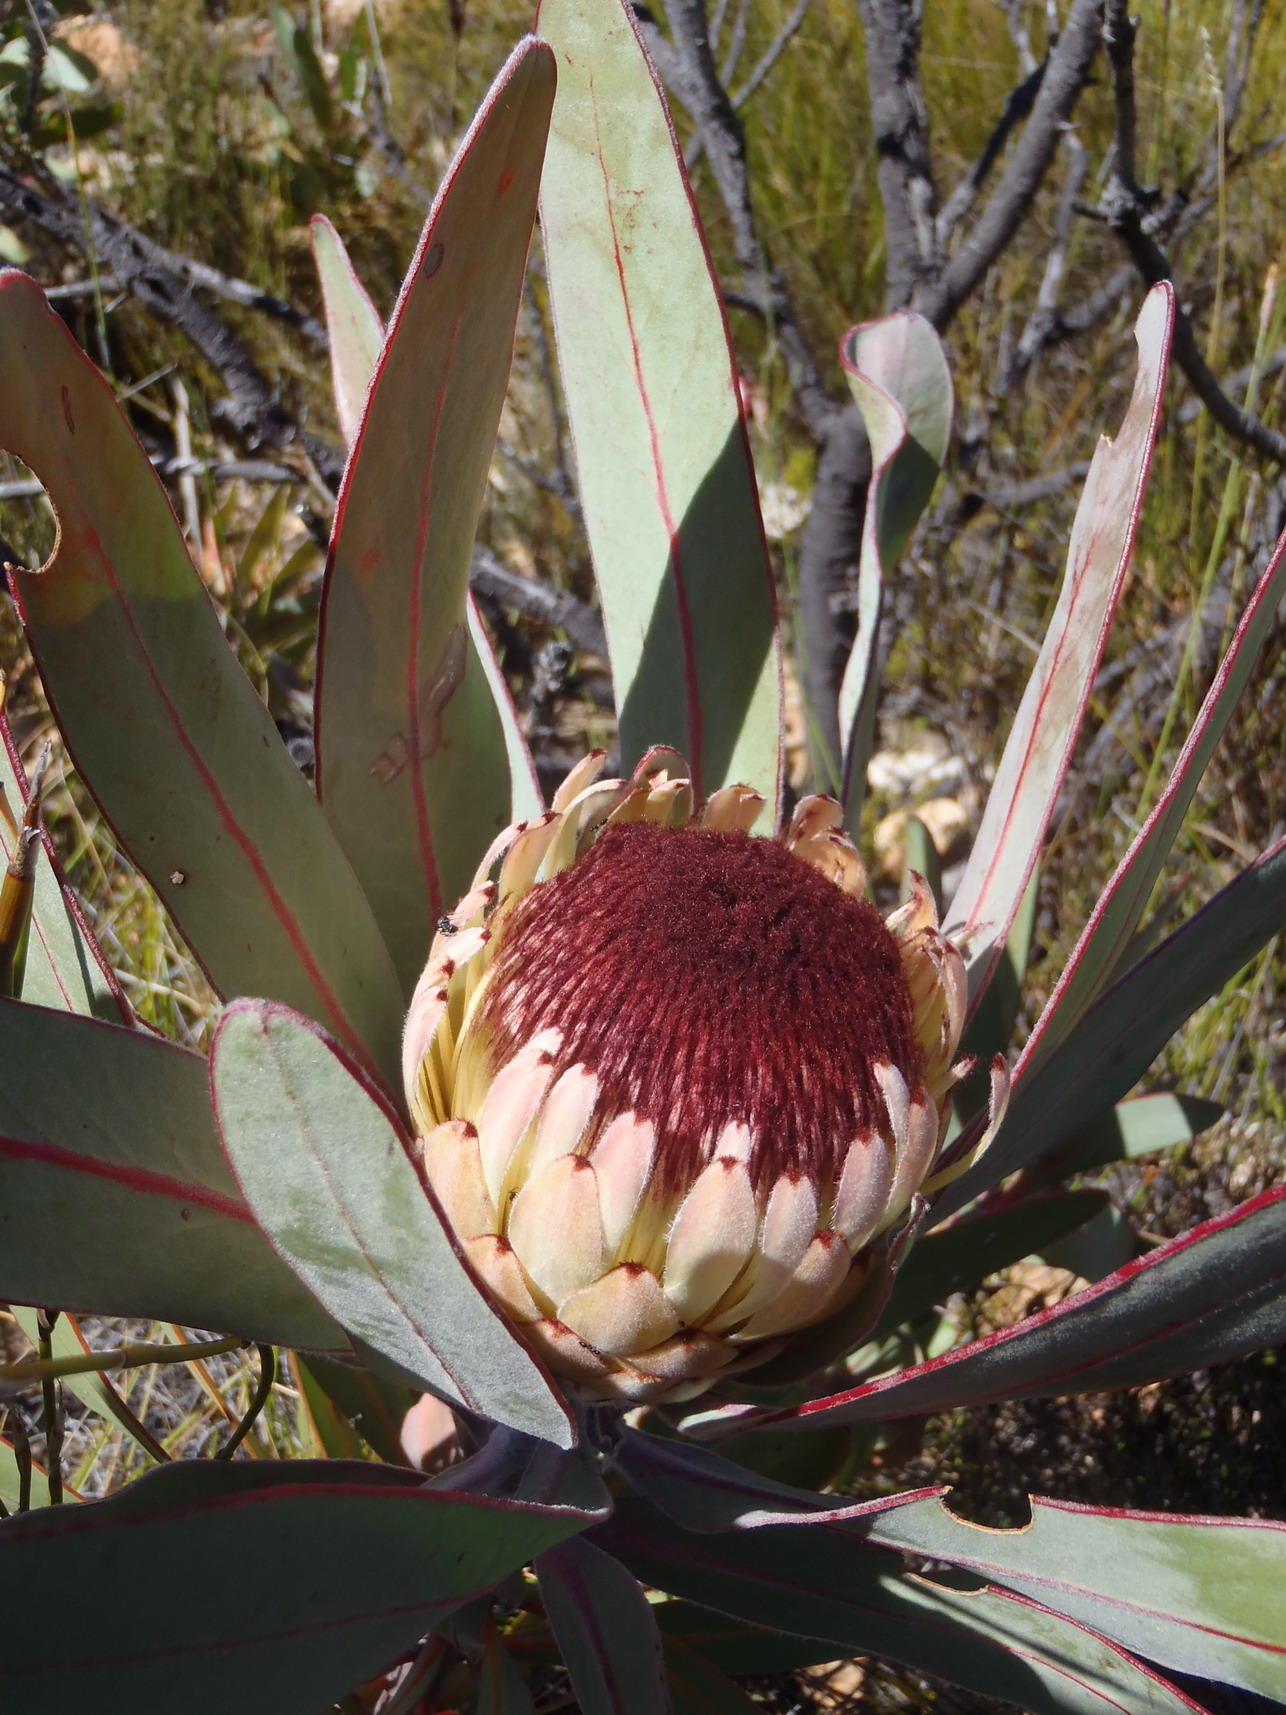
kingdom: Plantae
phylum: Tracheophyta
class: Magnoliopsida
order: Proteales
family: Proteaceae
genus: Protea
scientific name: Protea lorifolia
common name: Strap-leaved protea
